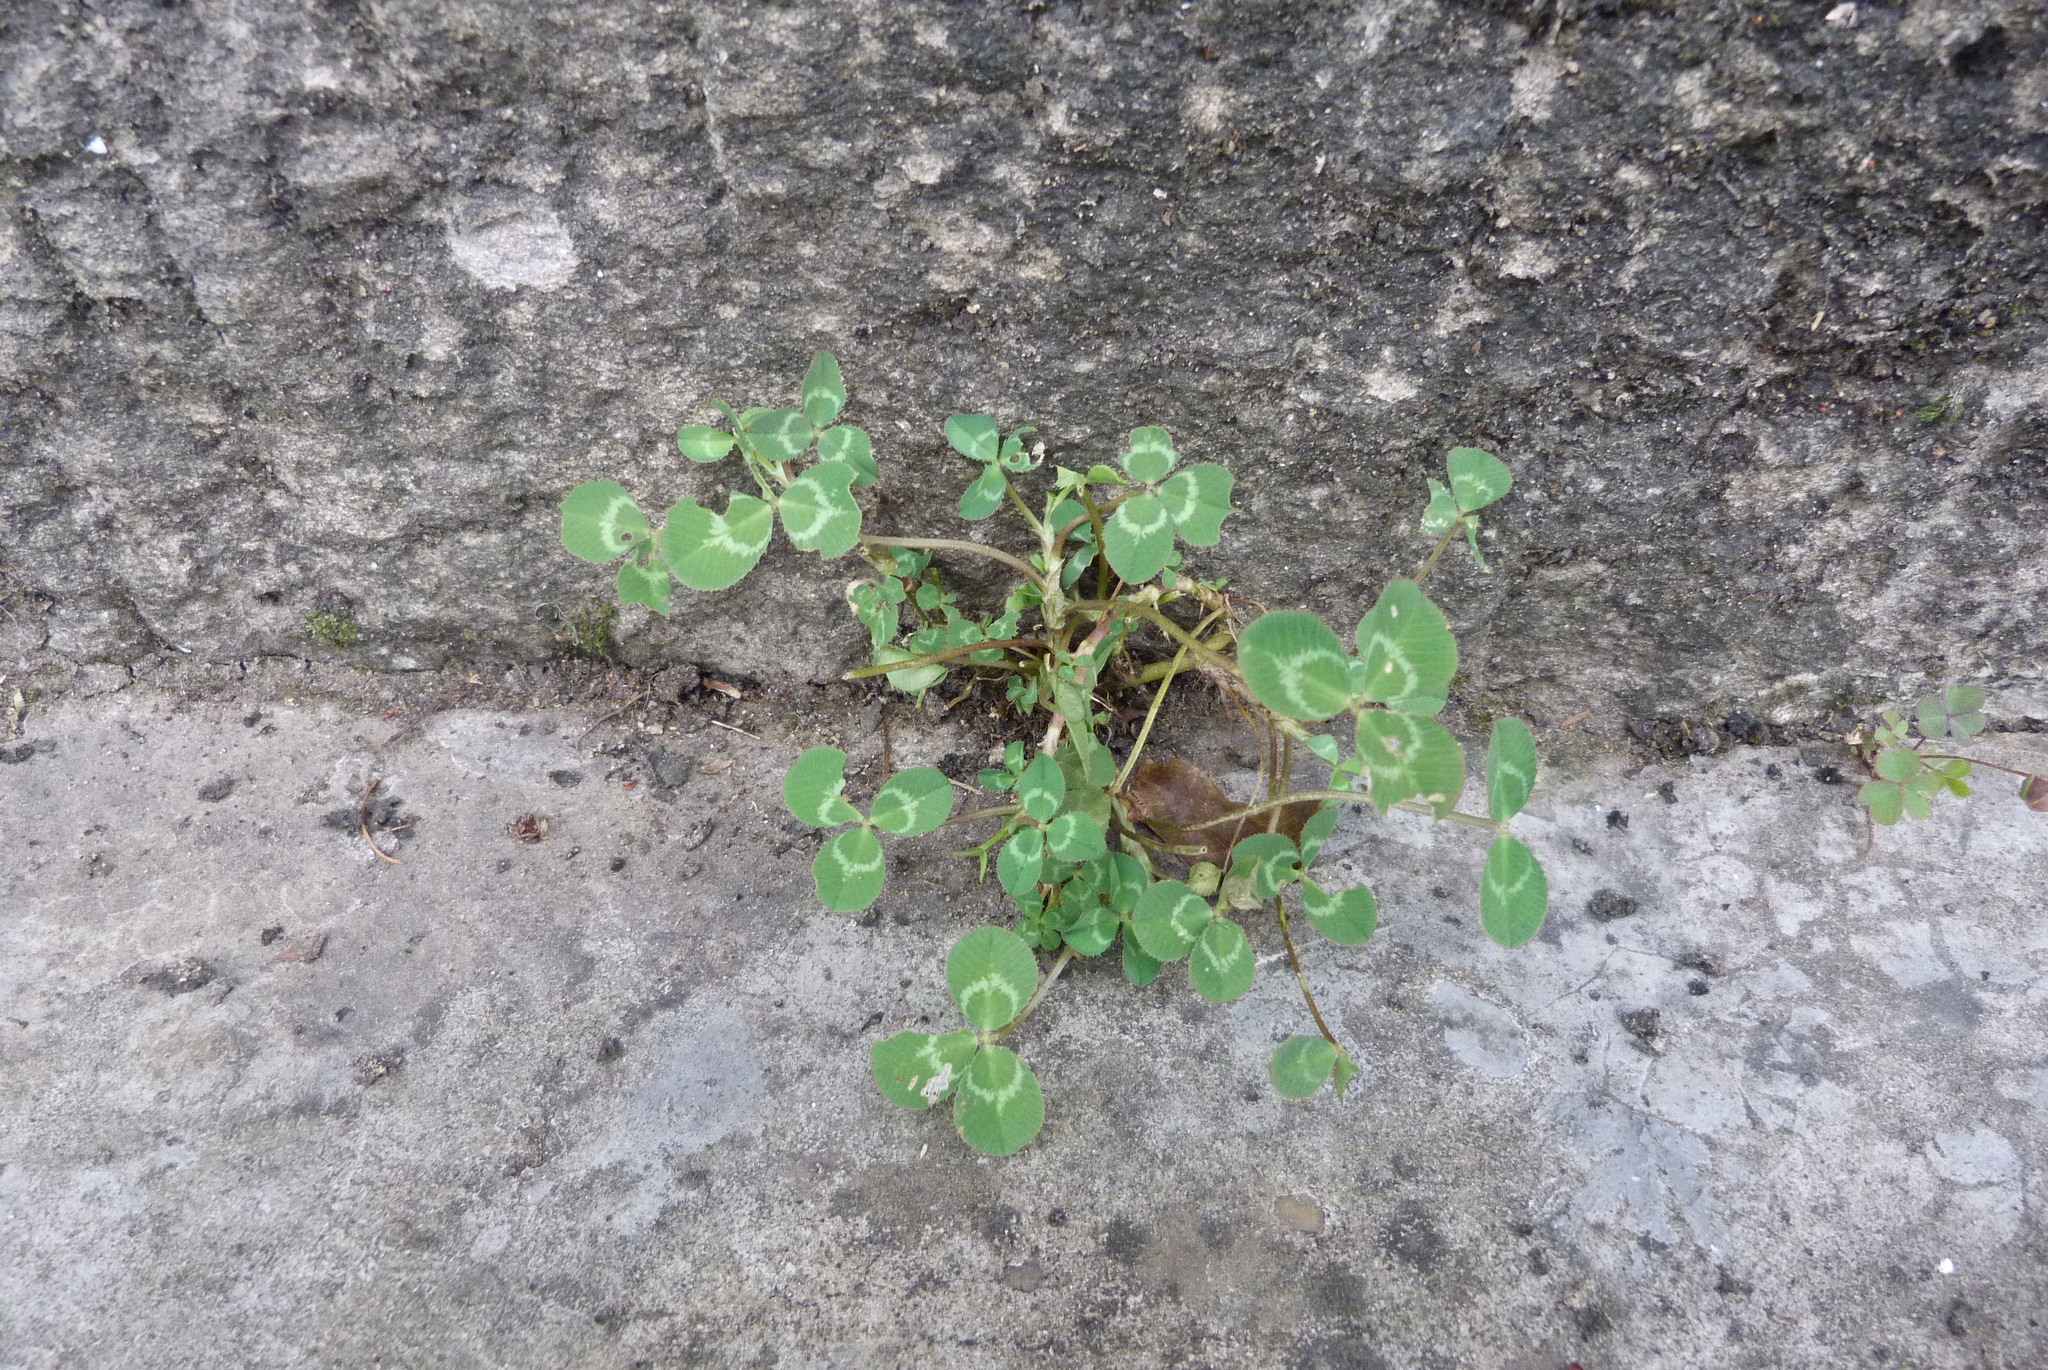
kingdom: Plantae
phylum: Tracheophyta
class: Magnoliopsida
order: Fabales
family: Fabaceae
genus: Trifolium
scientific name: Trifolium repens
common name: White clover
